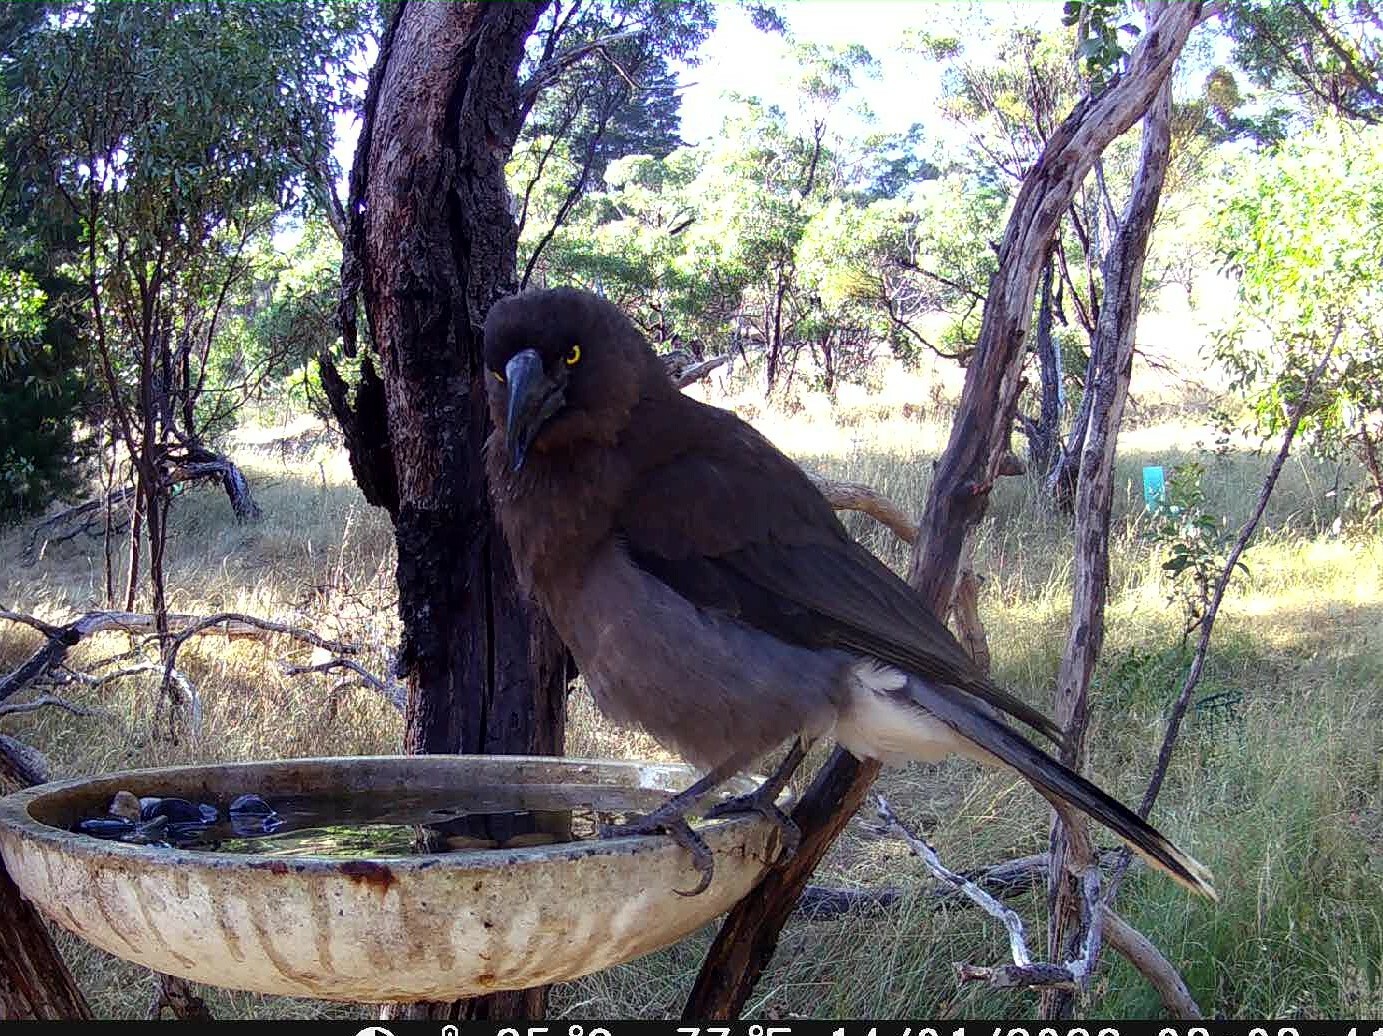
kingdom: Animalia
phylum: Chordata
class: Aves
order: Passeriformes
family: Cracticidae
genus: Strepera
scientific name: Strepera versicolor
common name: Grey currawong
